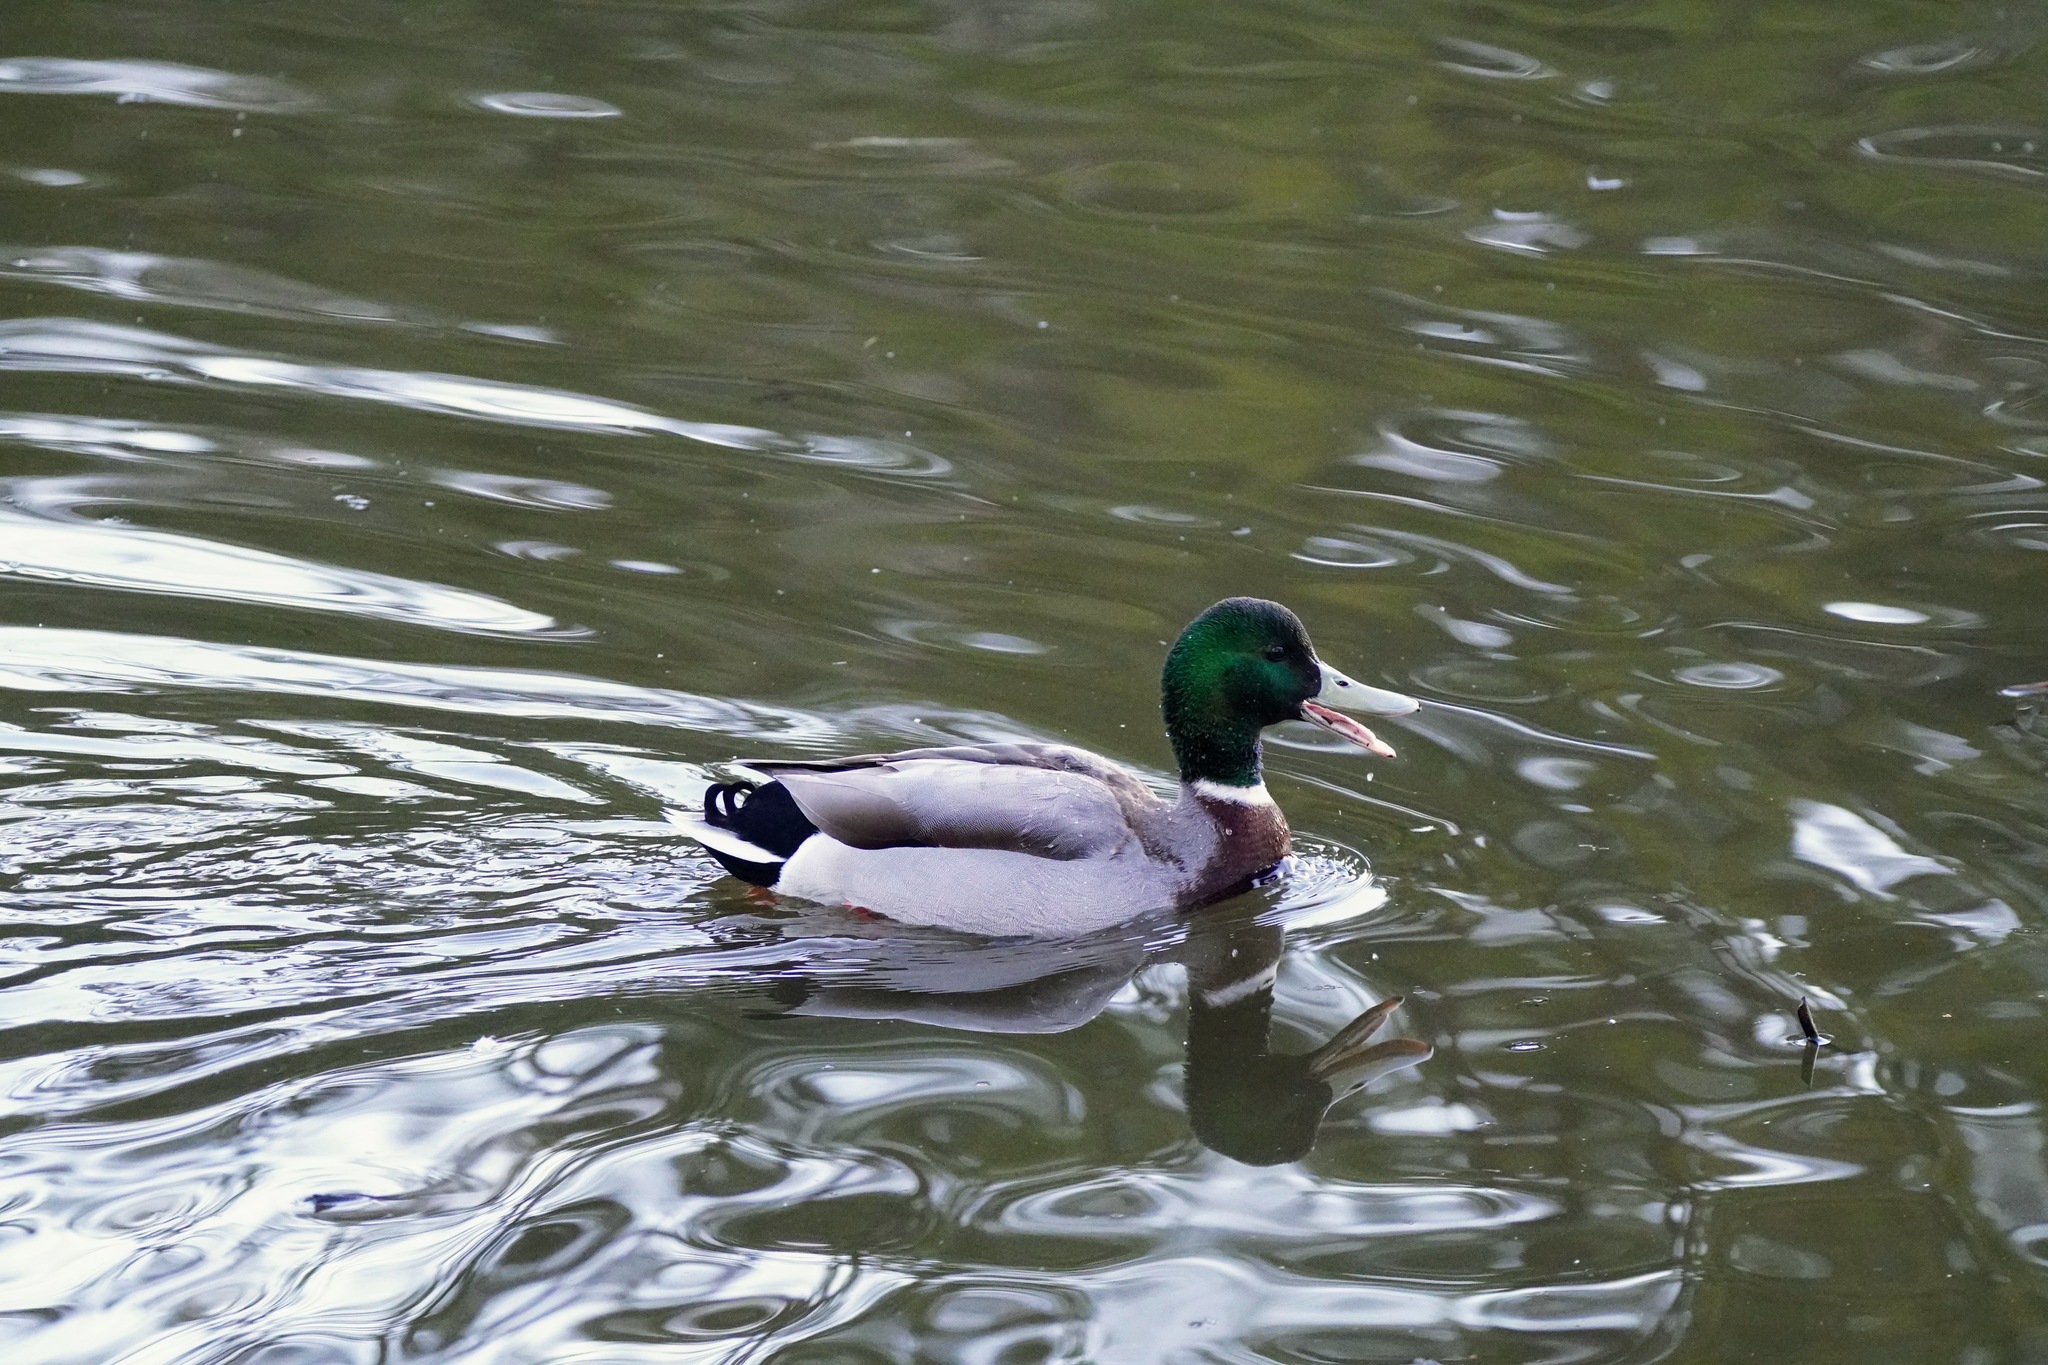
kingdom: Animalia
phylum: Chordata
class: Aves
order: Anseriformes
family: Anatidae
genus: Anas
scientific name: Anas platyrhynchos
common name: Mallard
